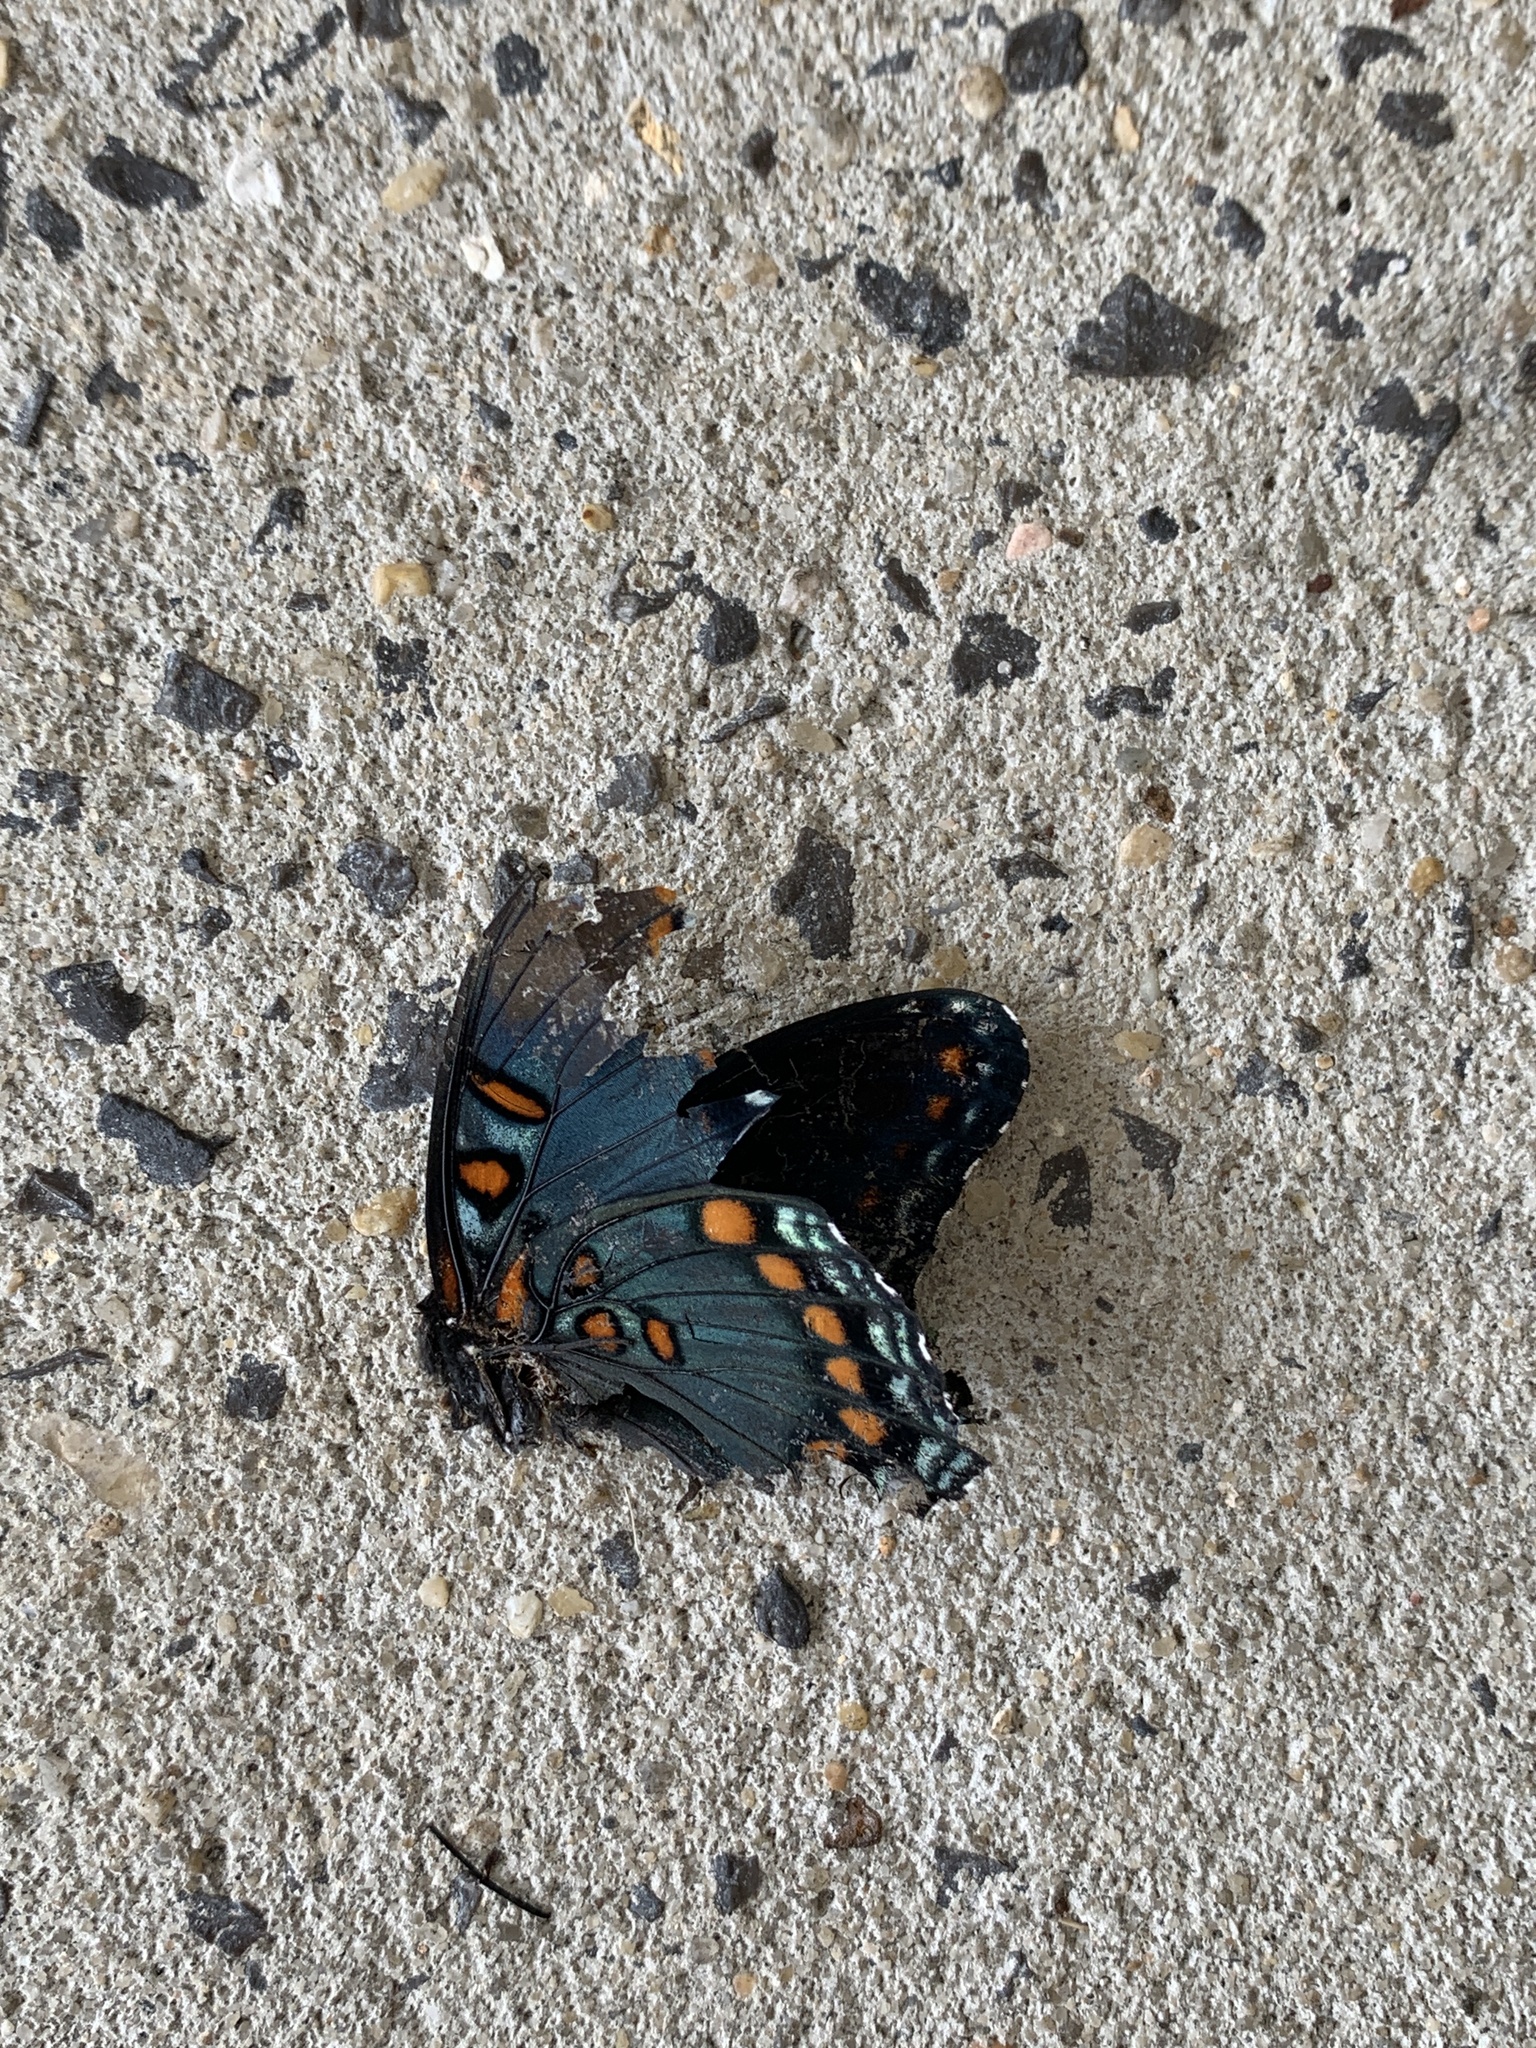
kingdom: Animalia
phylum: Arthropoda
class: Insecta
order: Lepidoptera
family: Nymphalidae
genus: Limenitis
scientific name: Limenitis astyanax
